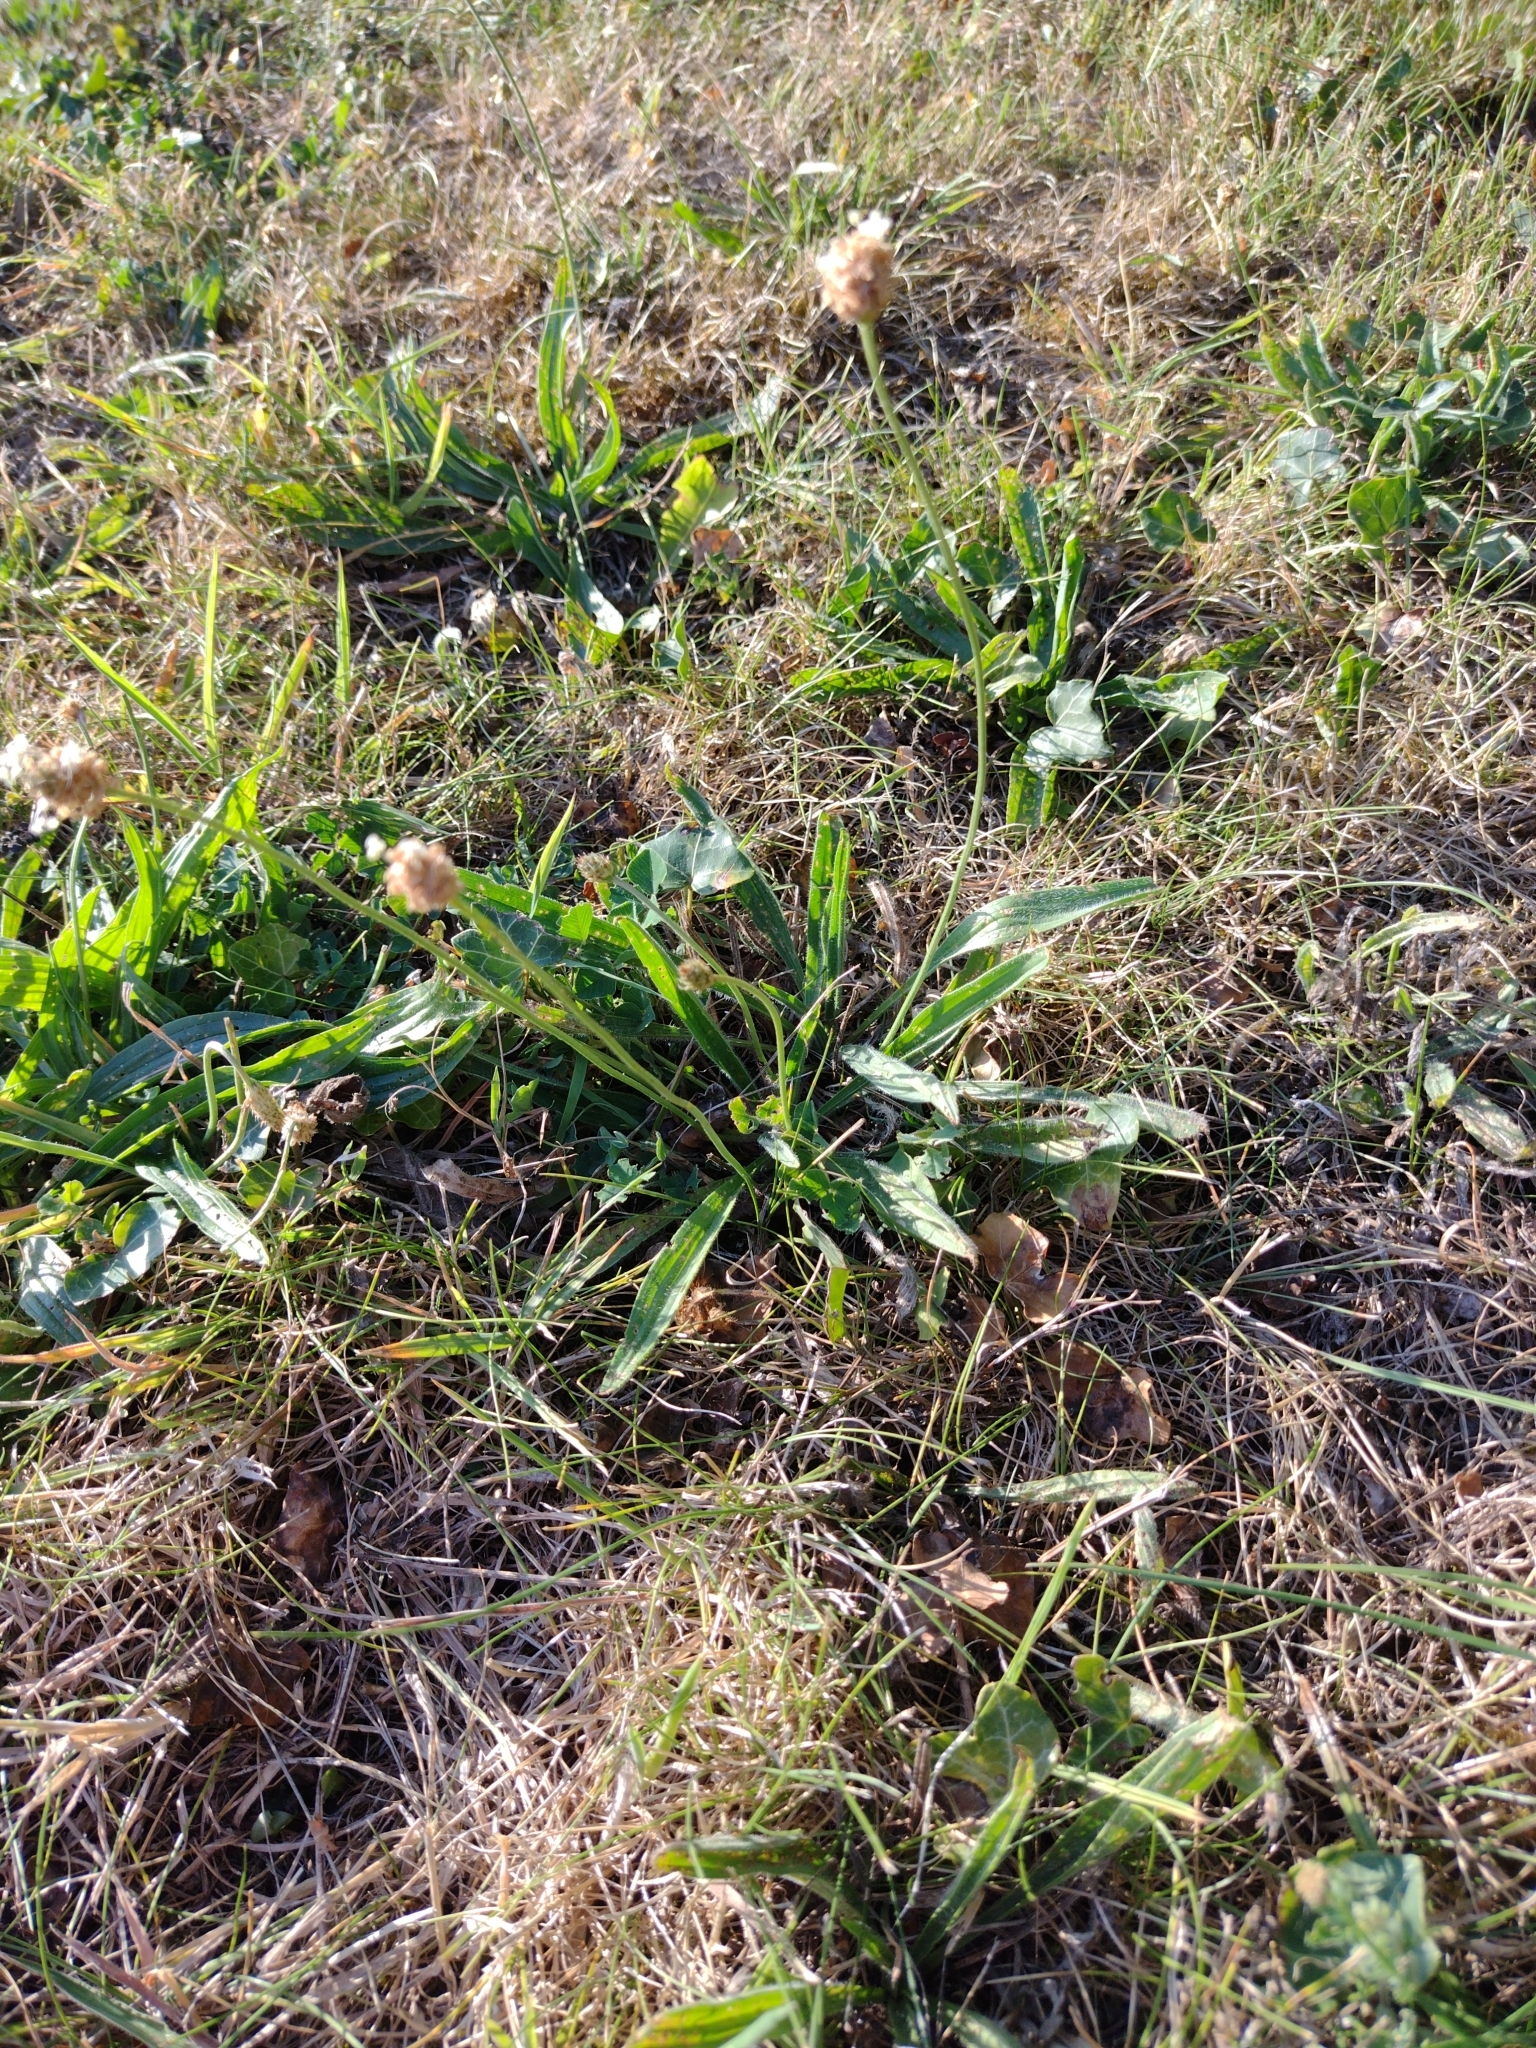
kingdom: Plantae
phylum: Tracheophyta
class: Magnoliopsida
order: Lamiales
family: Plantaginaceae
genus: Plantago
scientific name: Plantago lanceolata
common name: Ribwort plantain
